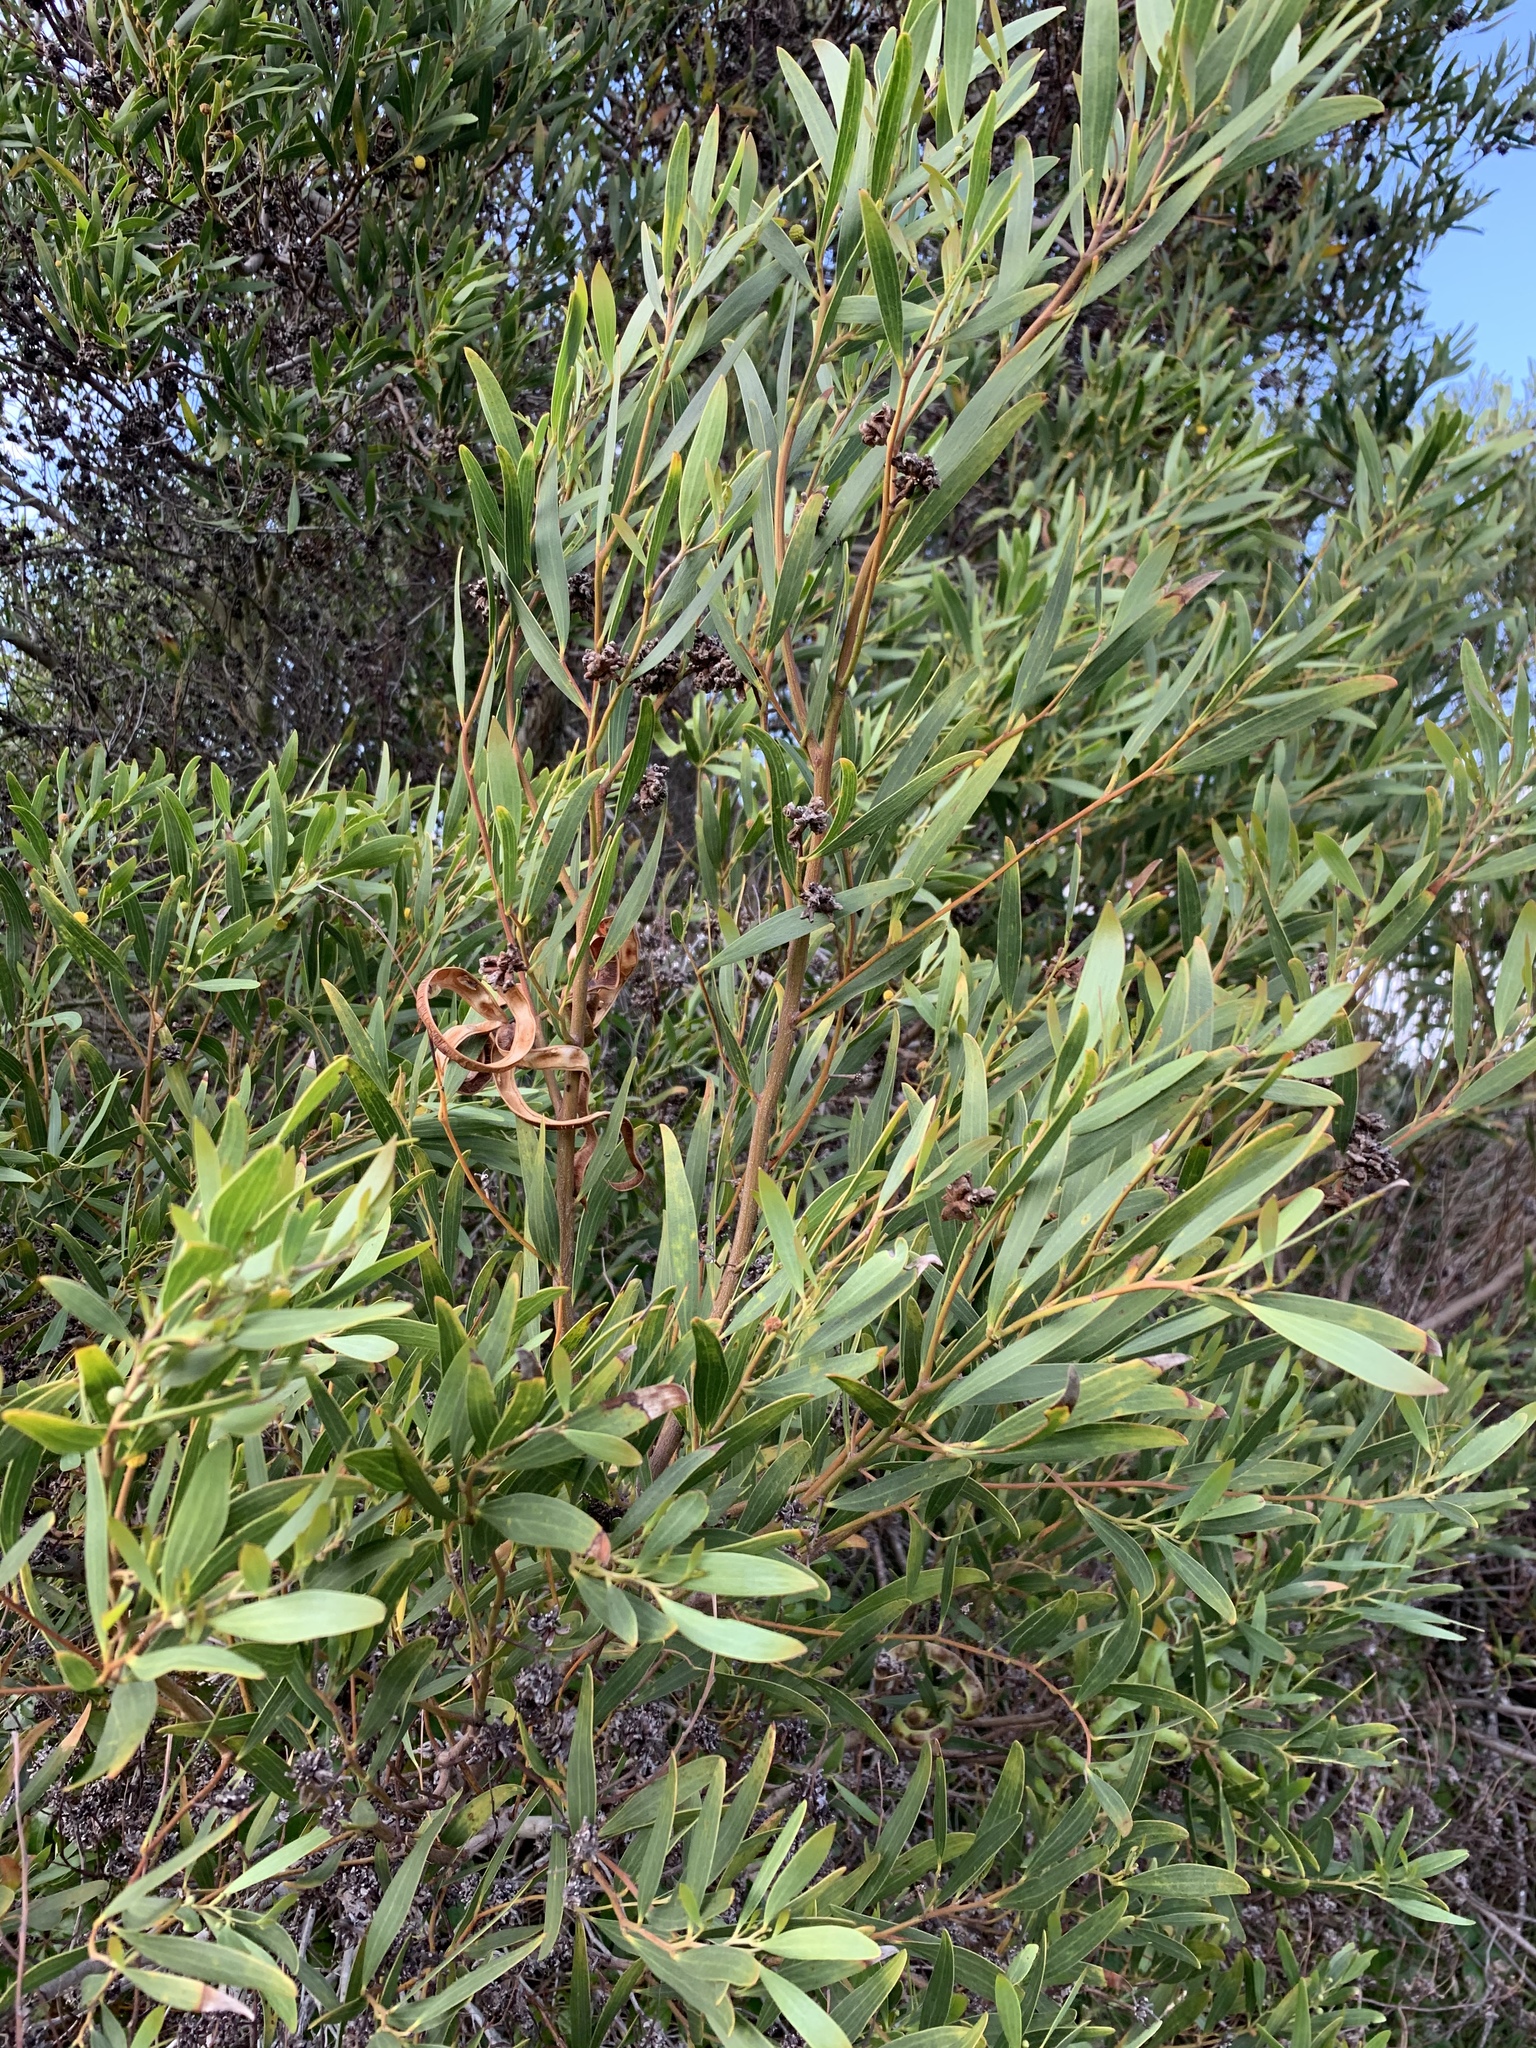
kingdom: Plantae
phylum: Tracheophyta
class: Magnoliopsida
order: Fabales
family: Fabaceae
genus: Acacia
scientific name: Acacia cyclops
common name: Coastal wattle
